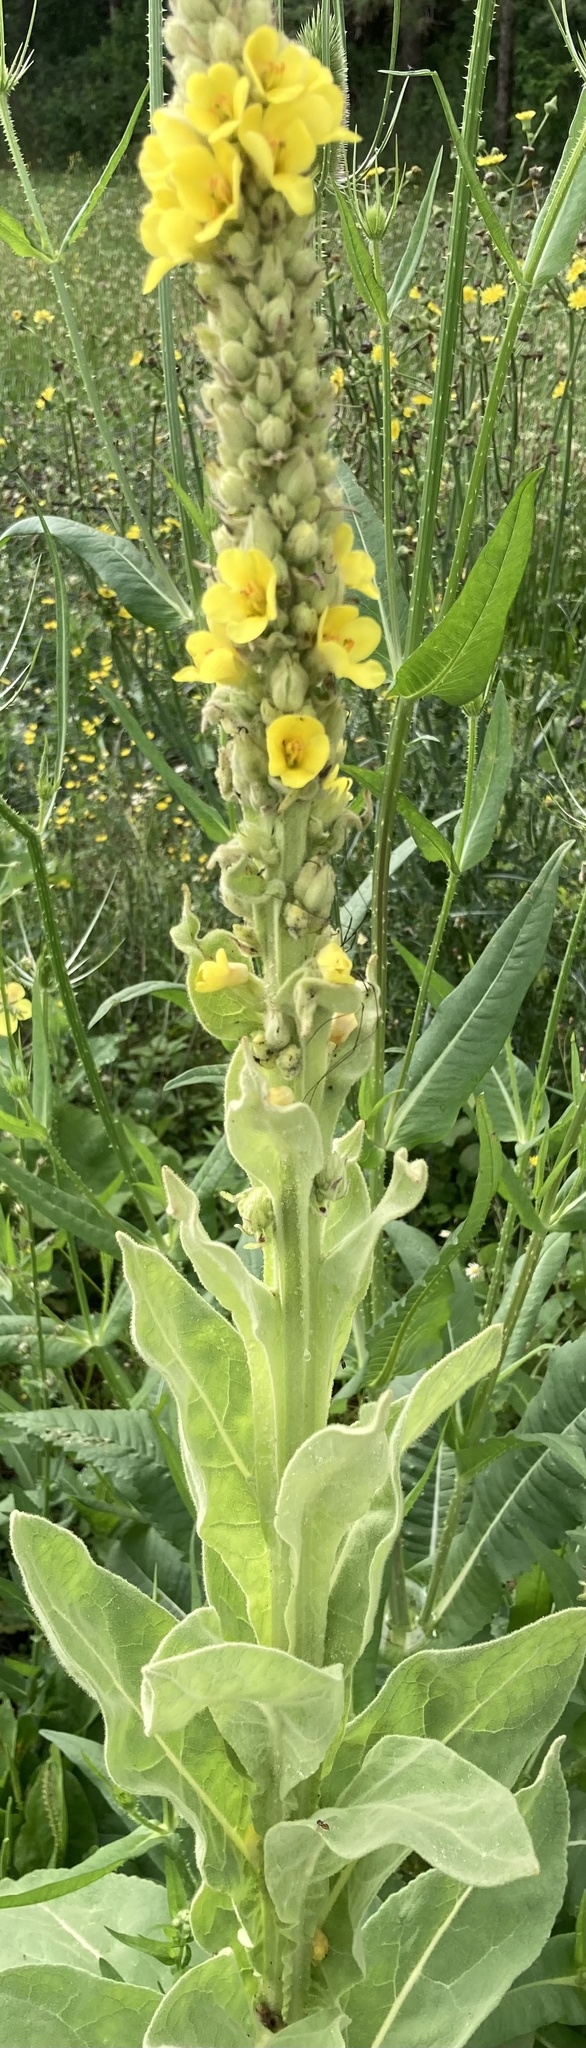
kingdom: Plantae
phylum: Tracheophyta
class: Magnoliopsida
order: Lamiales
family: Scrophulariaceae
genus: Verbascum
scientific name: Verbascum thapsus
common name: Common mullein
